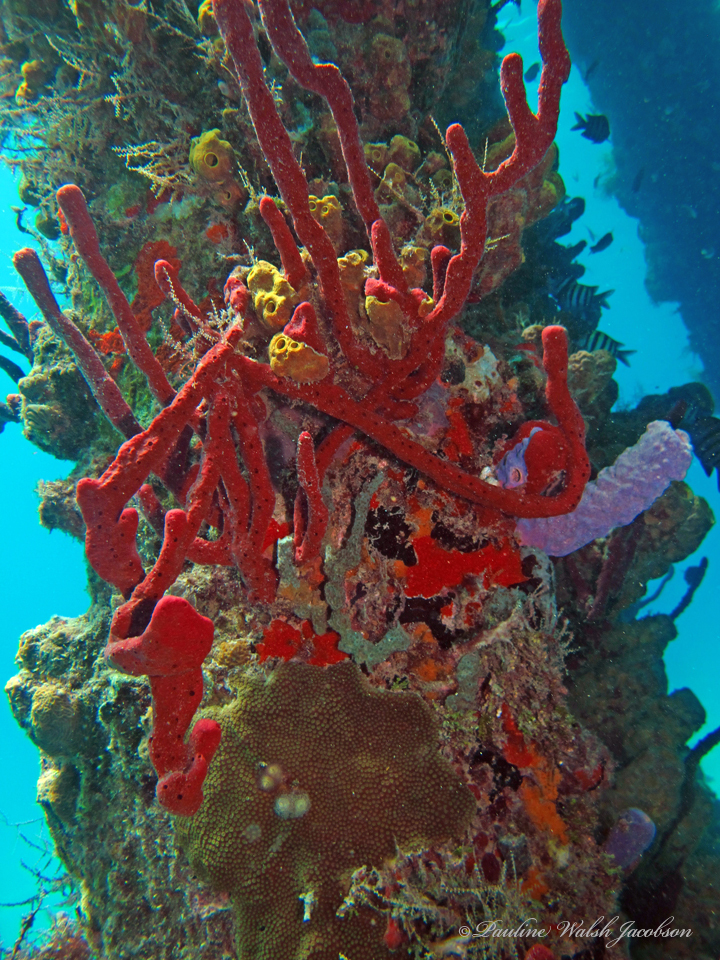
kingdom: Animalia
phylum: Porifera
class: Demospongiae
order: Haplosclerida
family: Niphatidae
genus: Amphimedon
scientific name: Amphimedon compressa
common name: Red sponge
